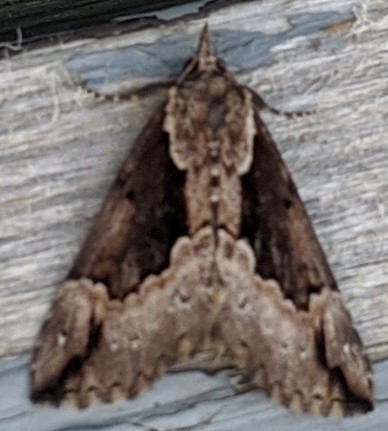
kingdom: Animalia
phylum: Arthropoda
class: Insecta
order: Lepidoptera
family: Erebidae
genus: Hypena
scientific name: Hypena baltimoralis
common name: Baltimore snout
